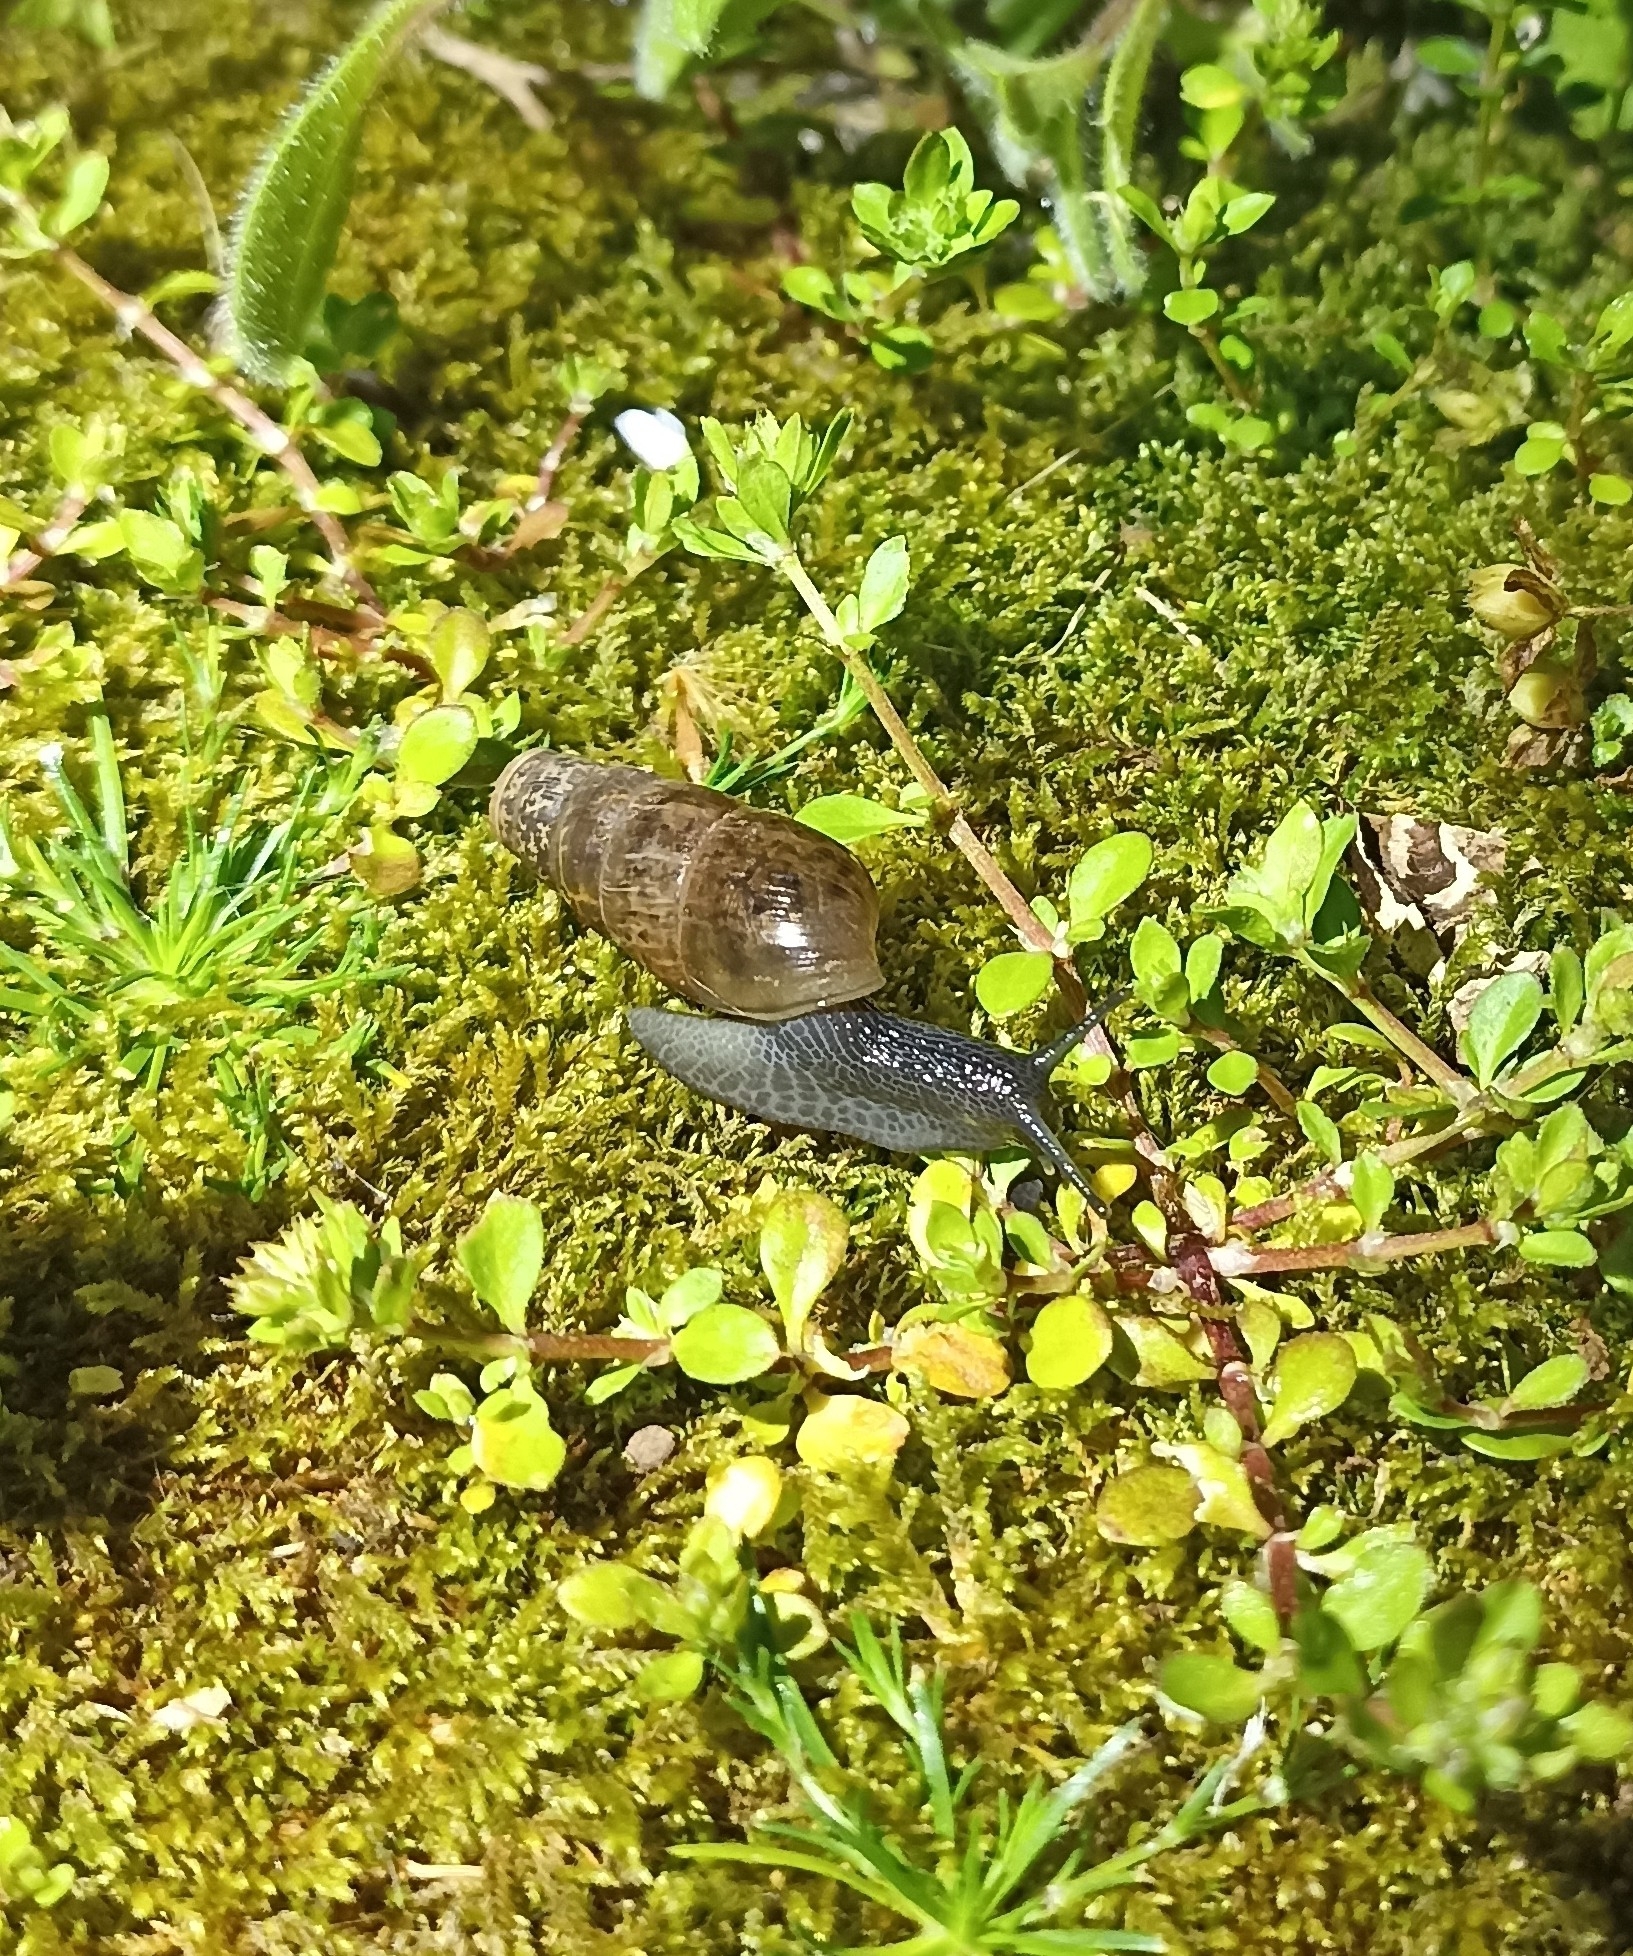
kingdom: Animalia
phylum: Mollusca
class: Gastropoda
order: Stylommatophora
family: Achatinidae
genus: Rumina
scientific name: Rumina decollata
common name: Decollate snail
